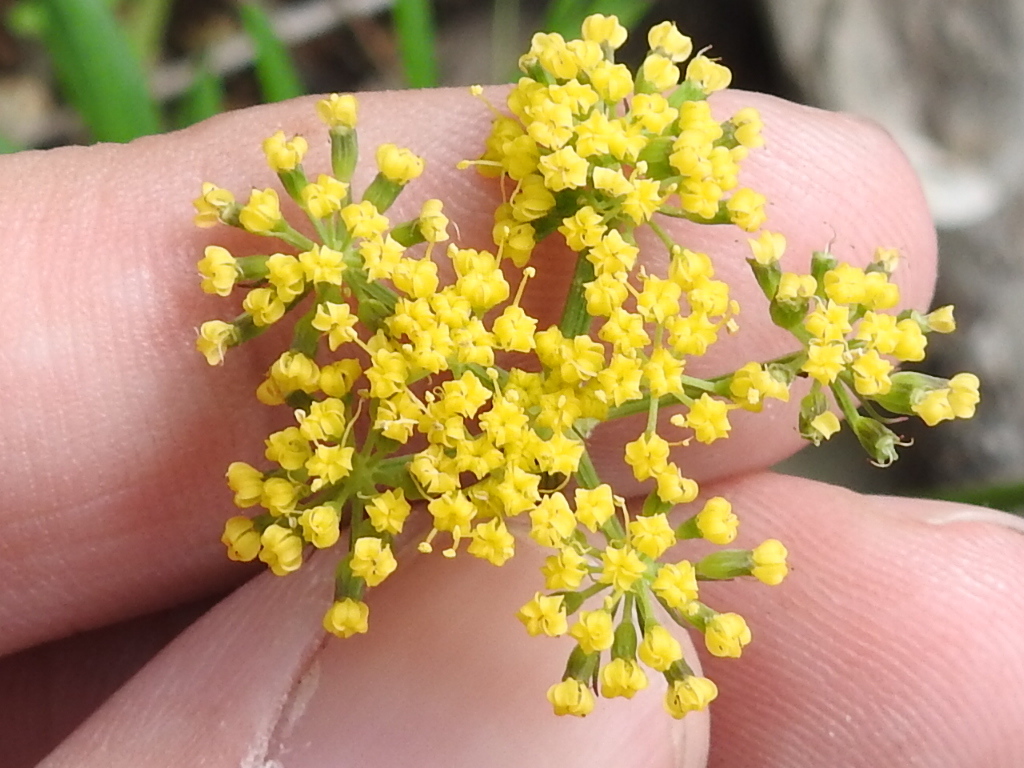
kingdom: Plantae
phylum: Tracheophyta
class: Magnoliopsida
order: Apiales
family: Apiaceae
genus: Cymopterus
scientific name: Cymopterus lemmonii
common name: Lemmon's spring-parsley
